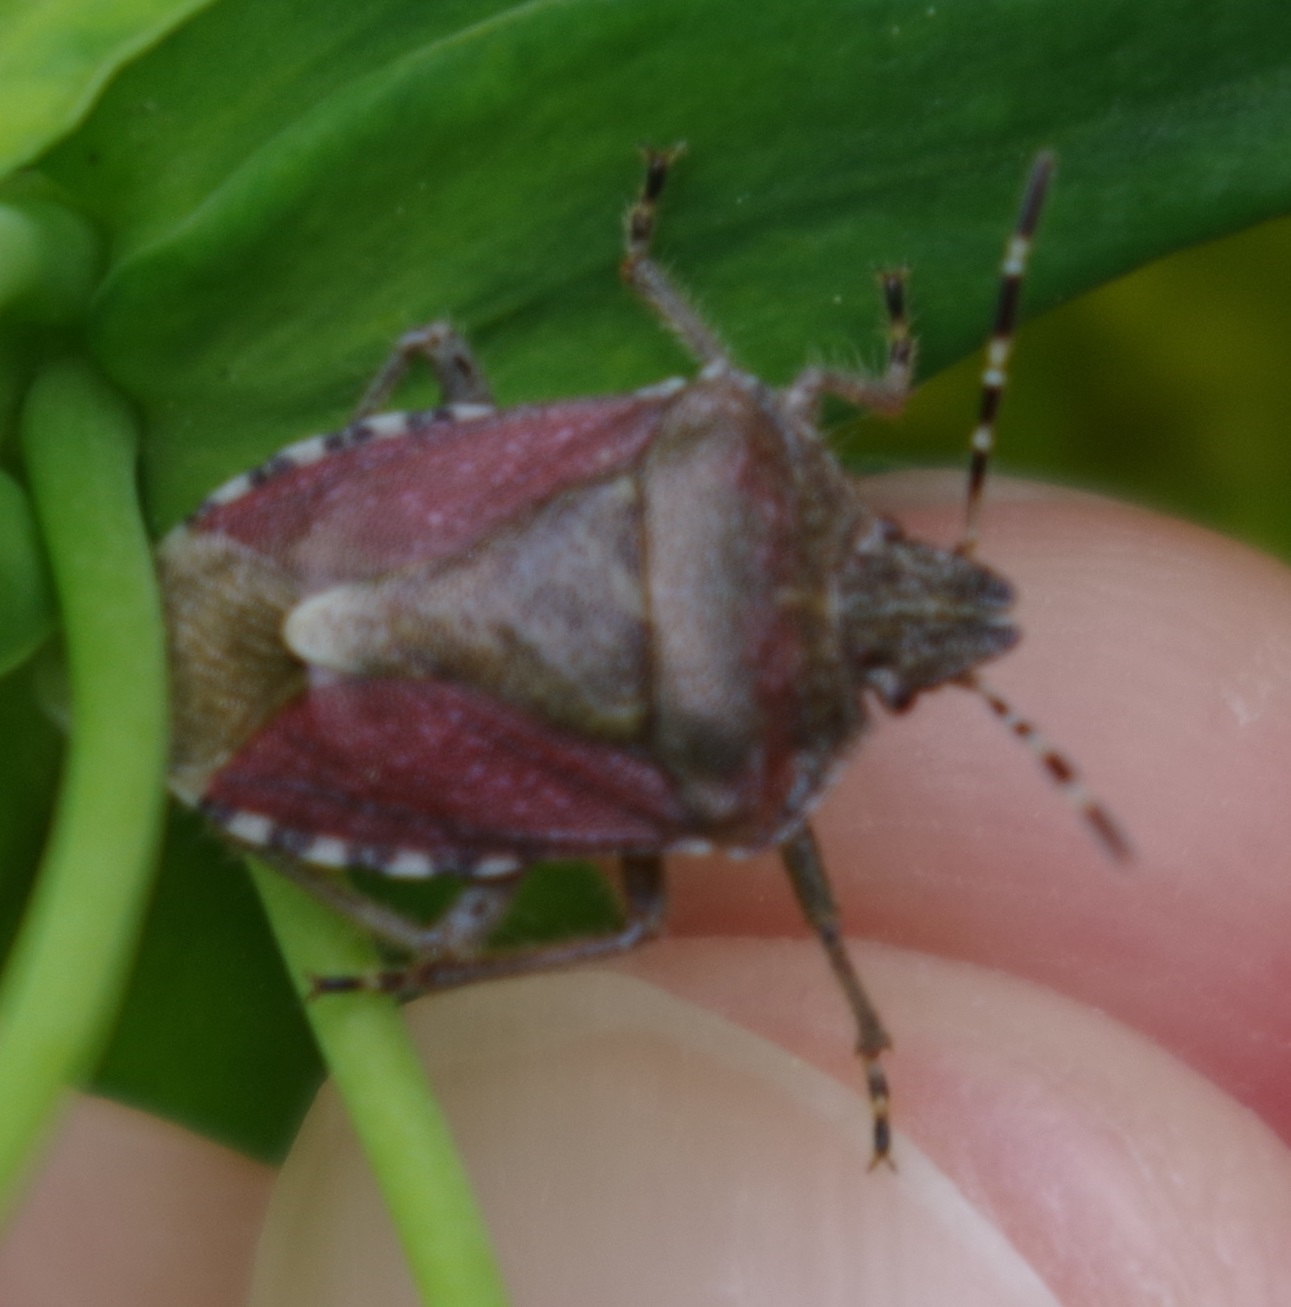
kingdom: Animalia
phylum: Arthropoda
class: Insecta
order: Hemiptera
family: Pentatomidae
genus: Dolycoris
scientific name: Dolycoris baccarum
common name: Sloe bug
